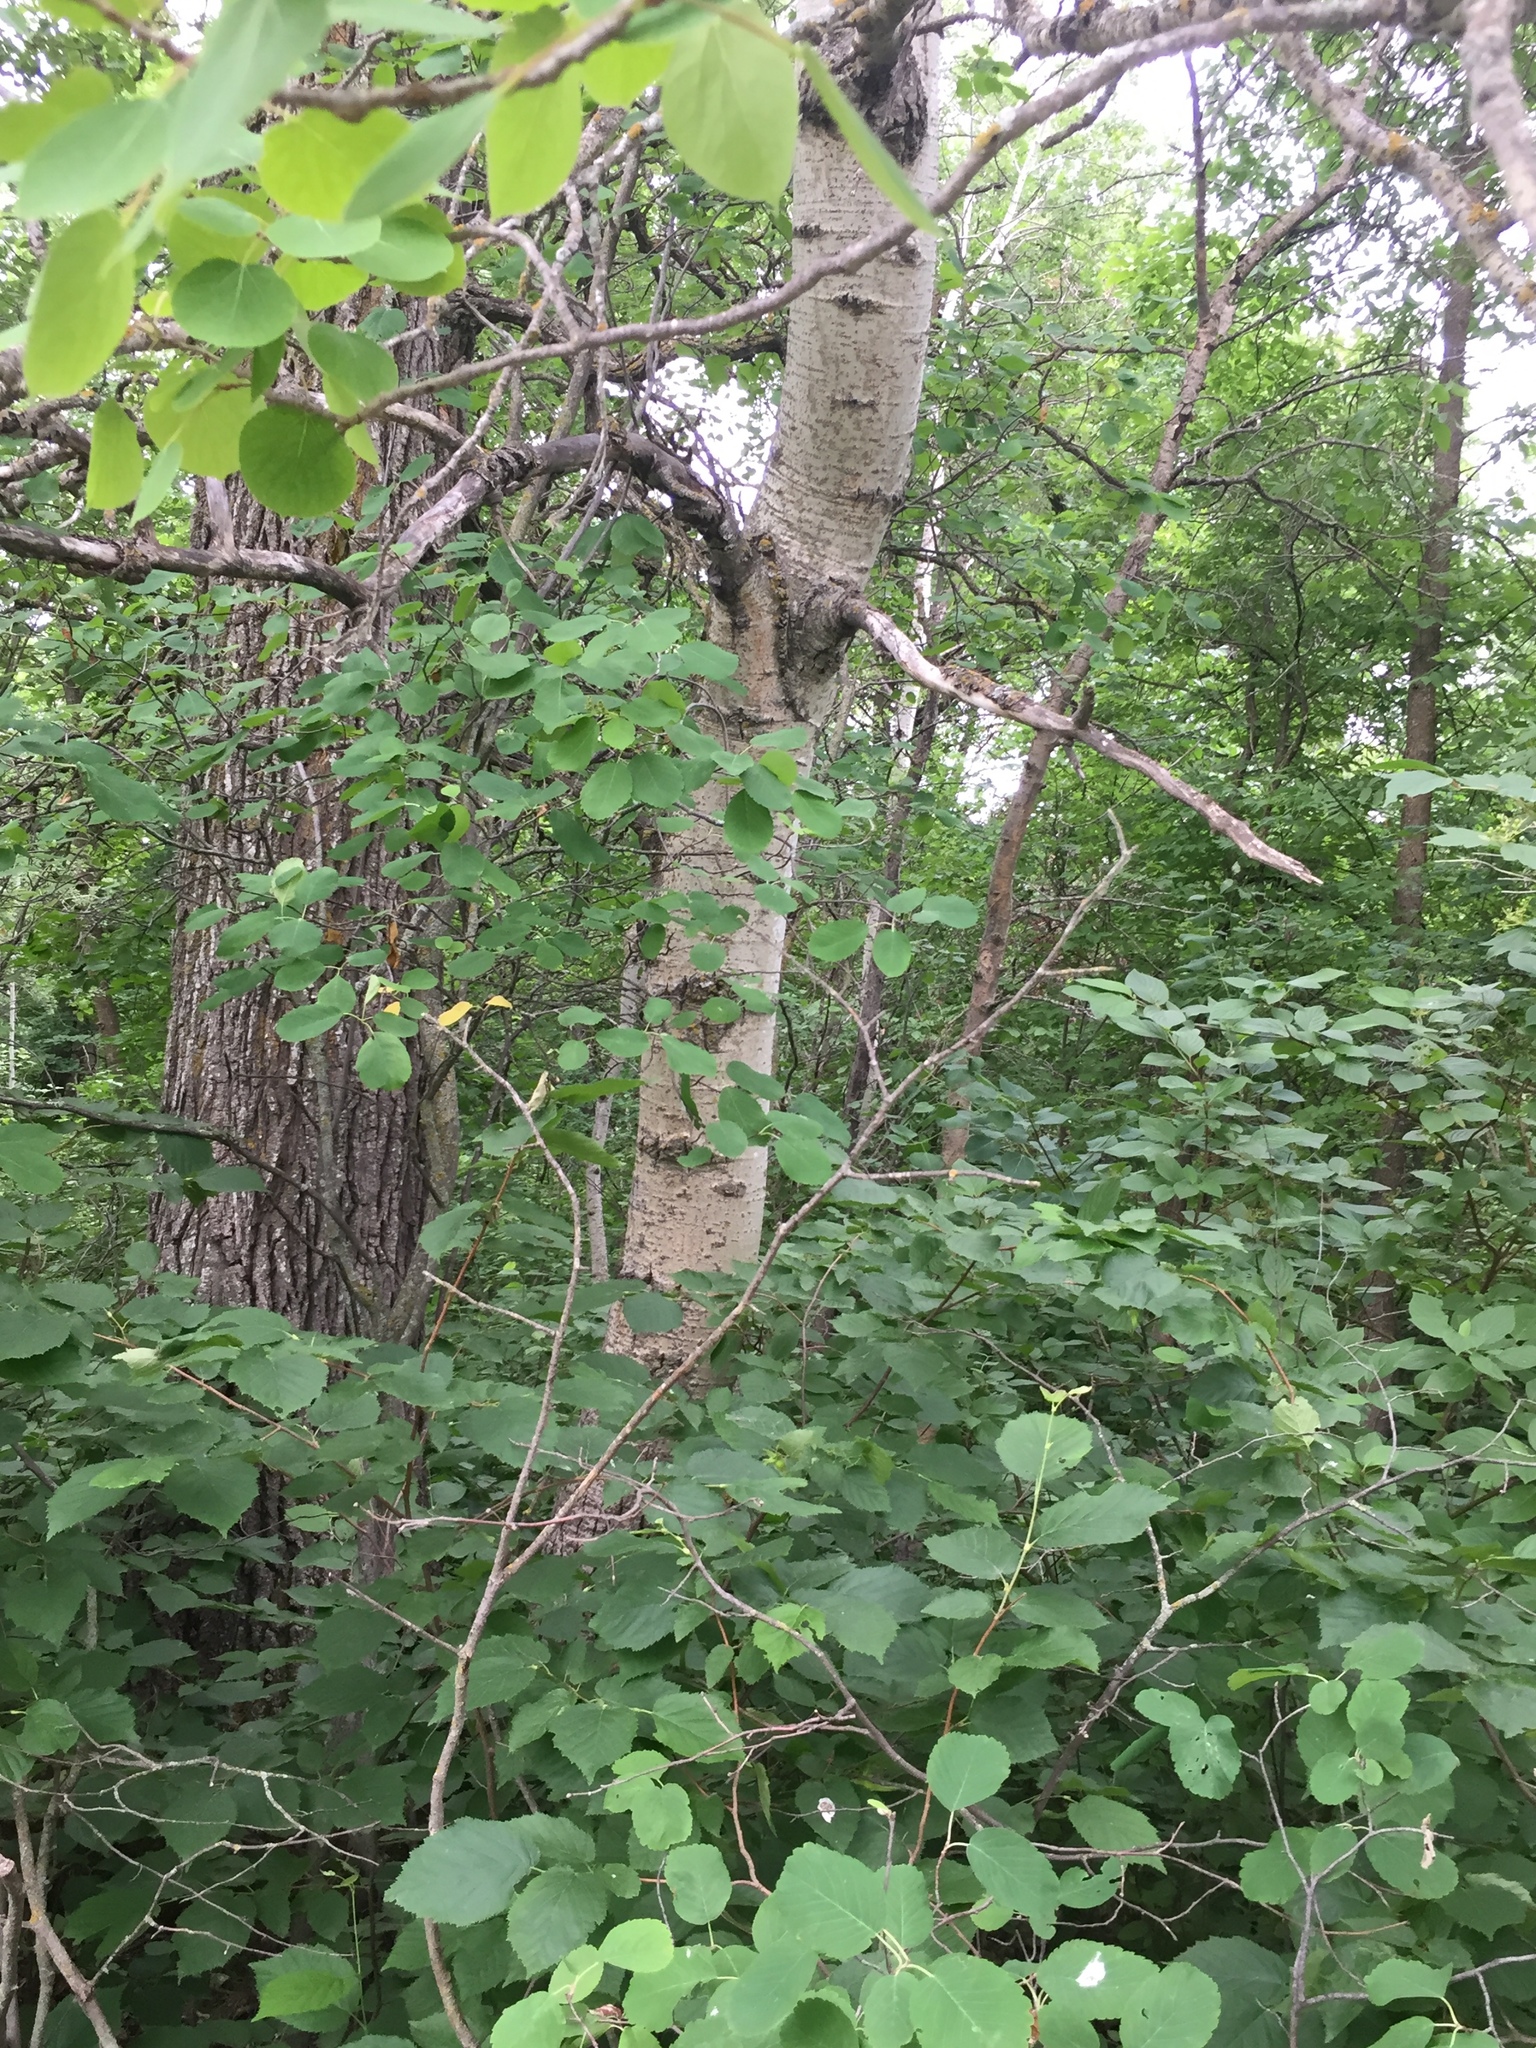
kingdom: Plantae
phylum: Tracheophyta
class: Magnoliopsida
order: Malpighiales
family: Salicaceae
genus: Populus
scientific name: Populus tremuloides
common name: Quaking aspen
